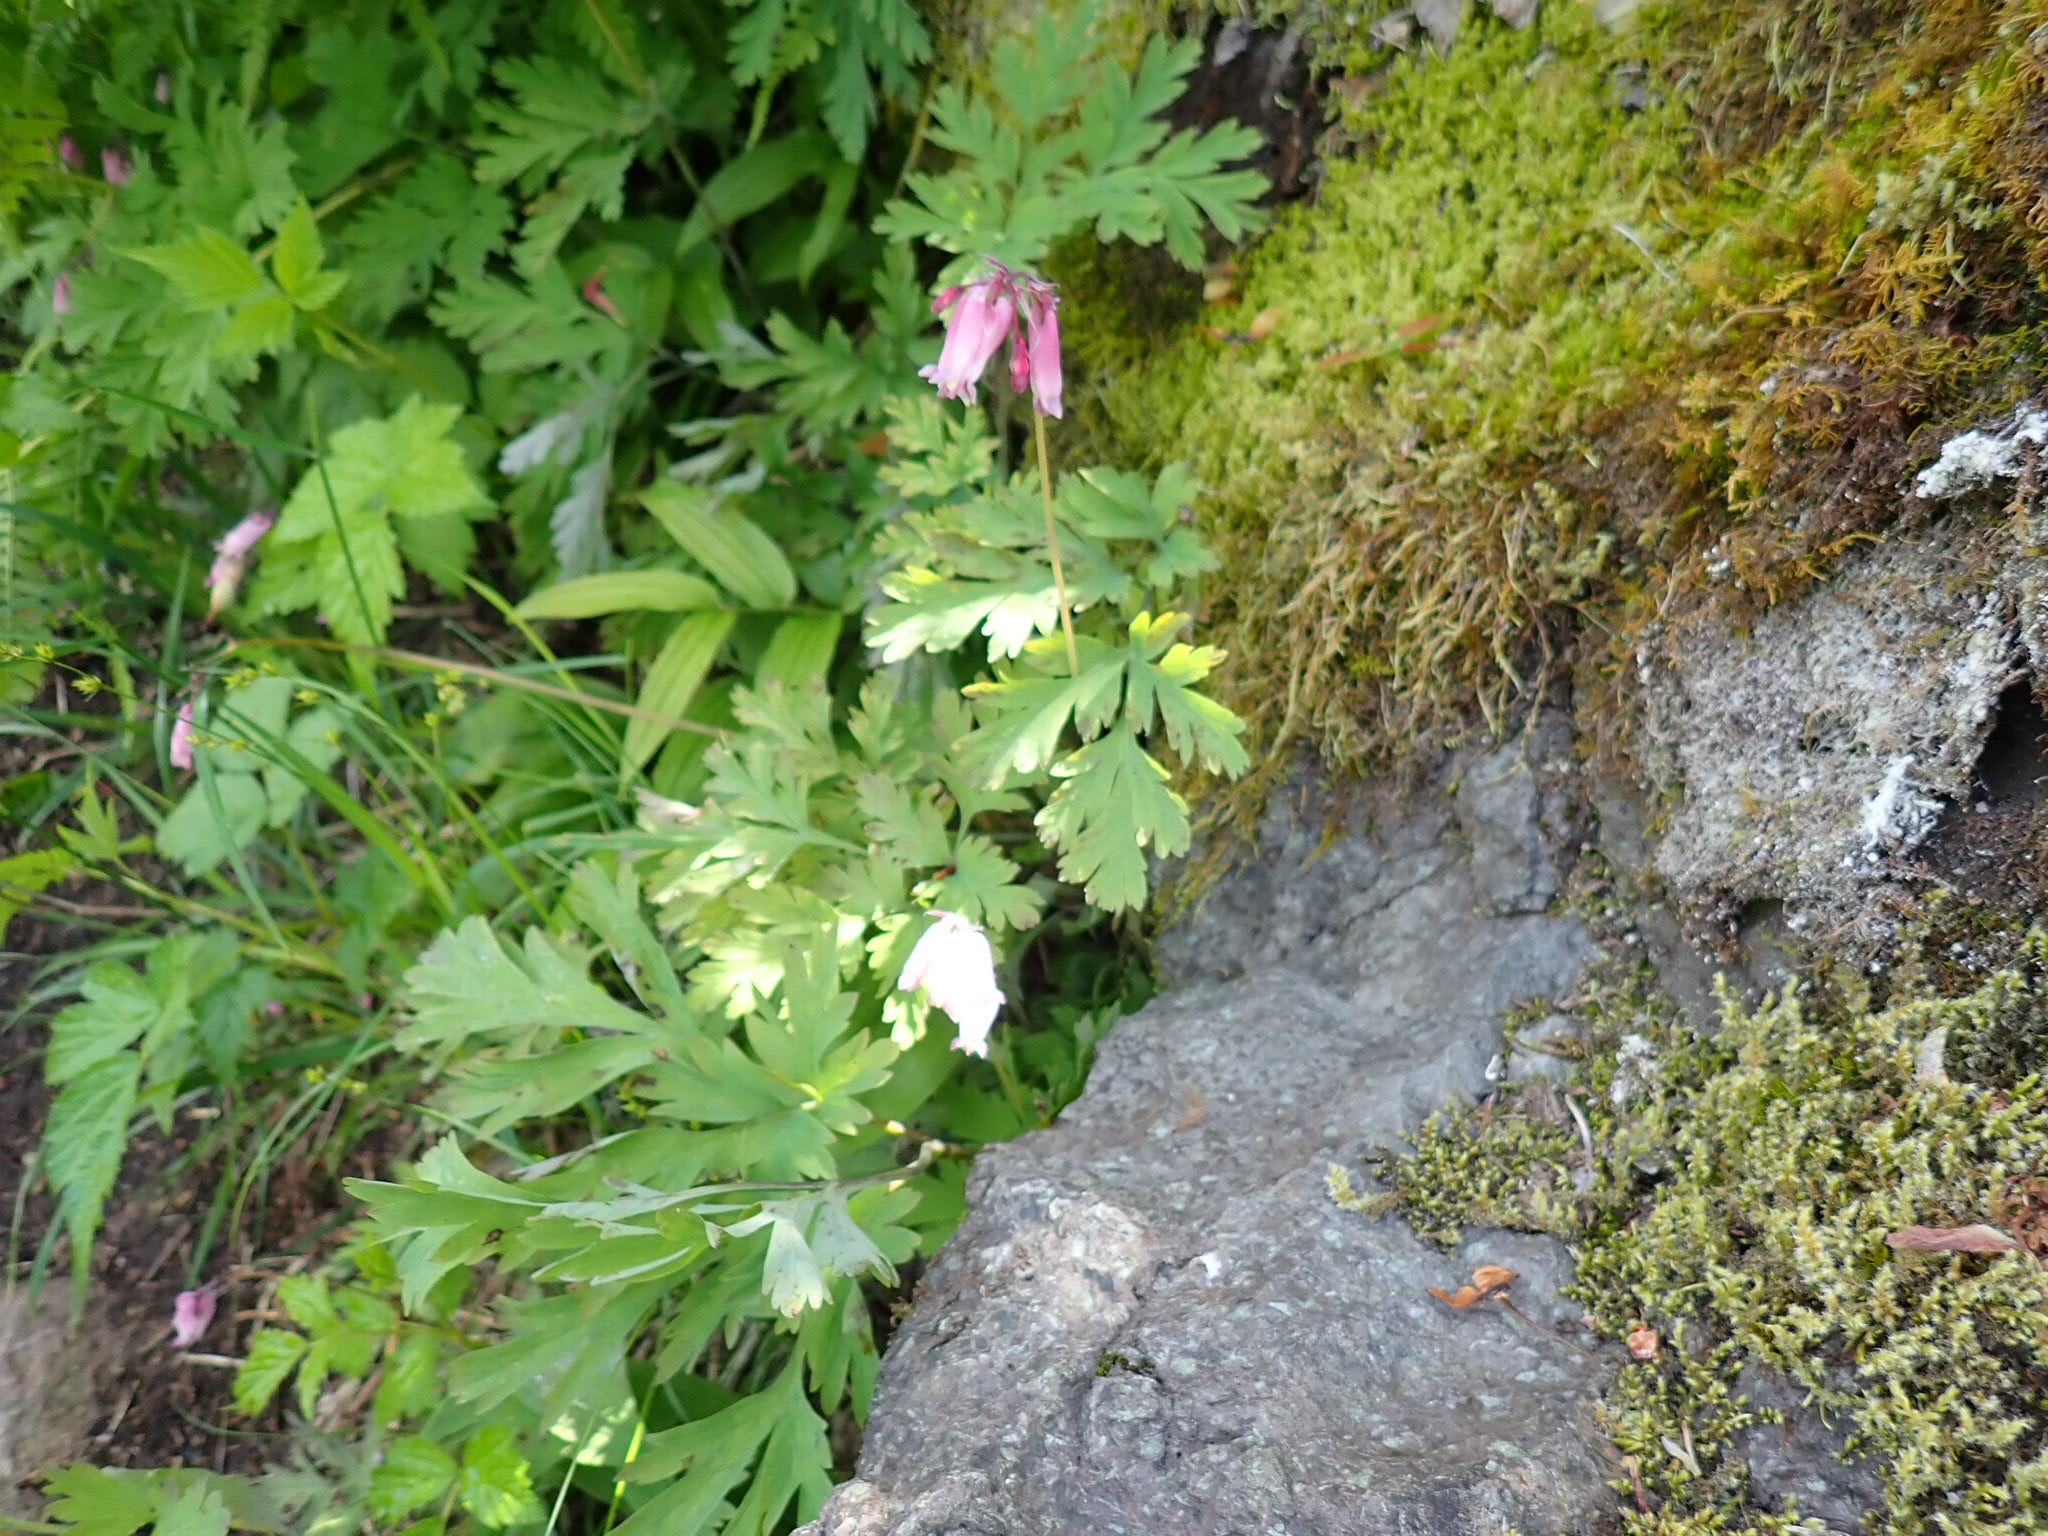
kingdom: Plantae
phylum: Tracheophyta
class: Magnoliopsida
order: Ranunculales
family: Papaveraceae
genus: Dicentra
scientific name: Dicentra formosa
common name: Bleeding-heart
